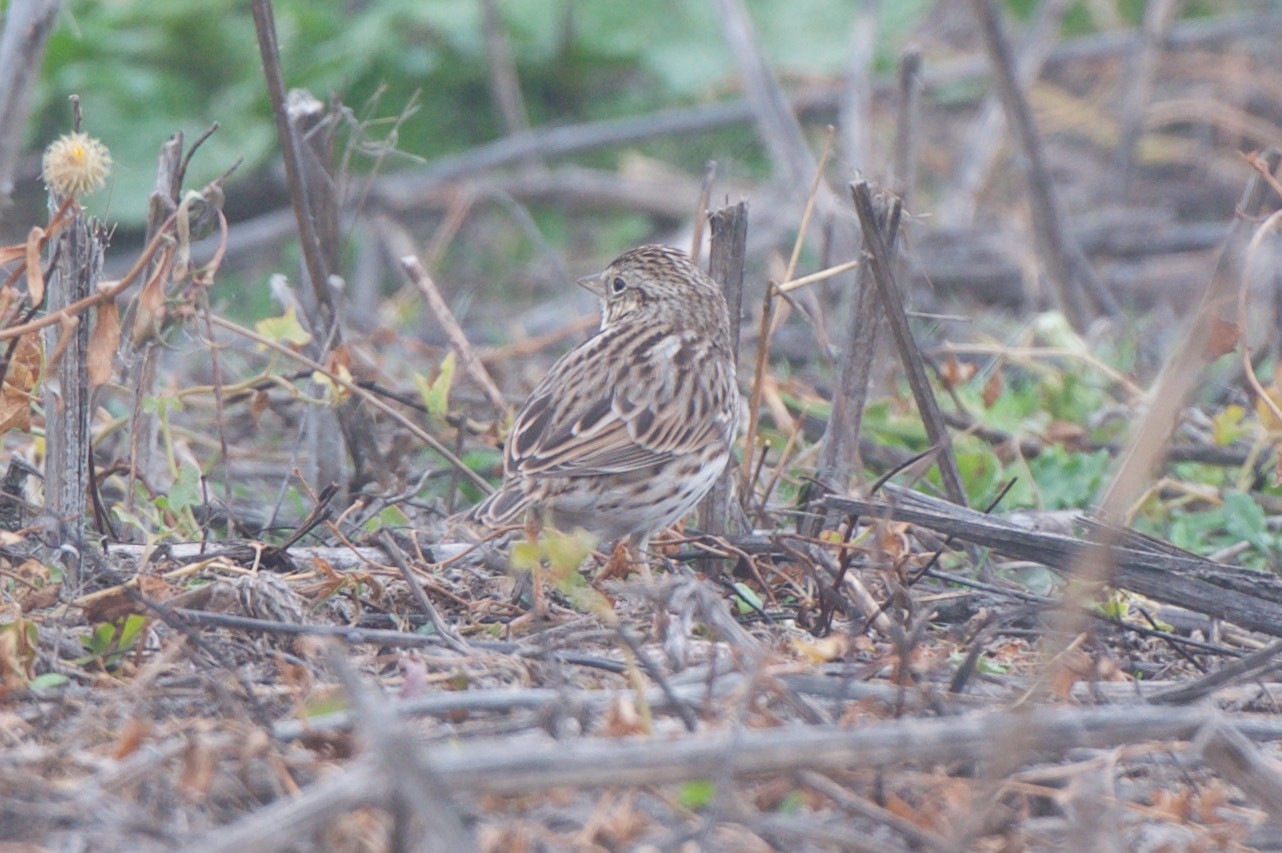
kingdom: Animalia
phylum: Chordata
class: Aves
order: Passeriformes
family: Passerellidae
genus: Passerculus
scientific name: Passerculus sandwichensis
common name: Savannah sparrow
